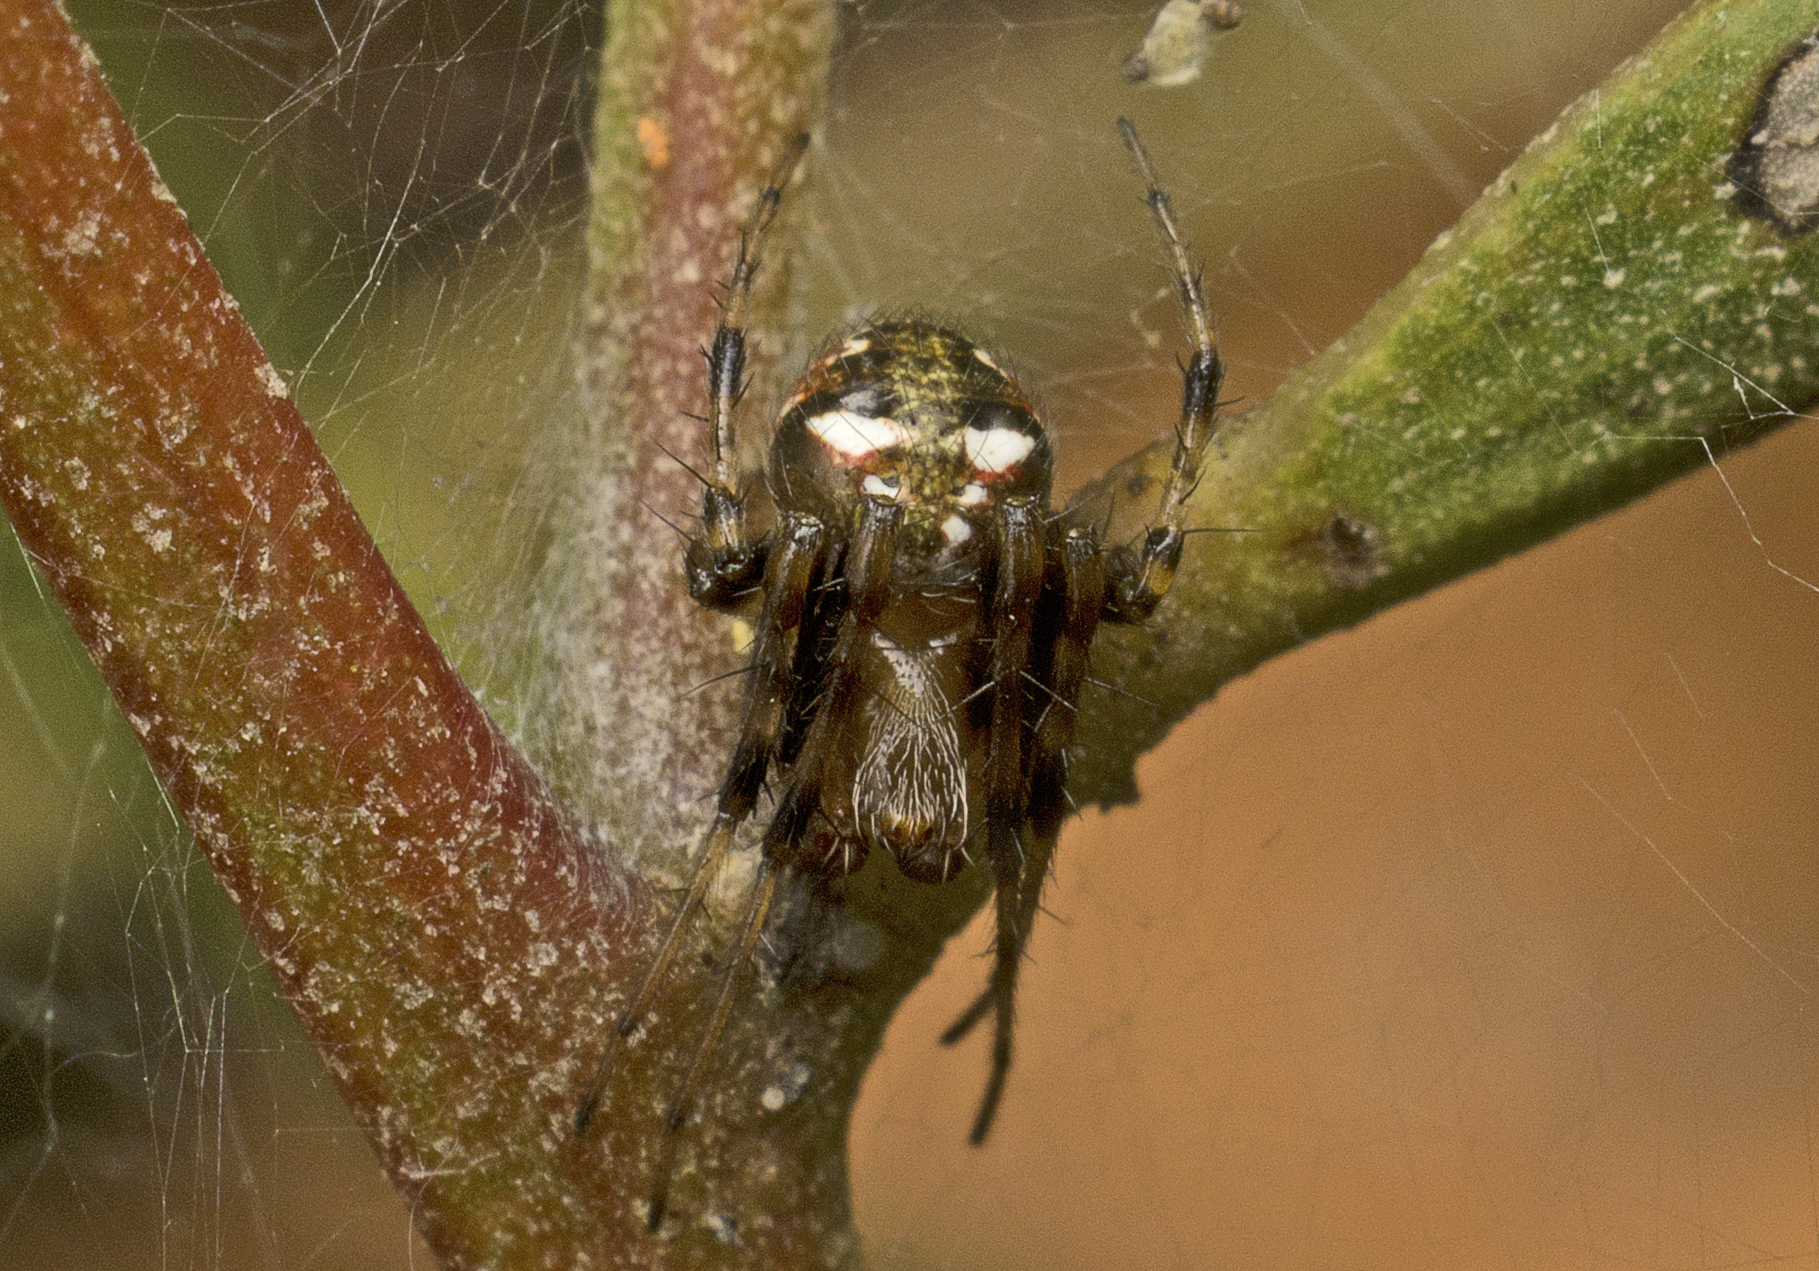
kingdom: Animalia
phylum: Arthropoda
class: Arachnida
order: Araneae
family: Araneidae
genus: Araneus
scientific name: Araneus albotriangulus
